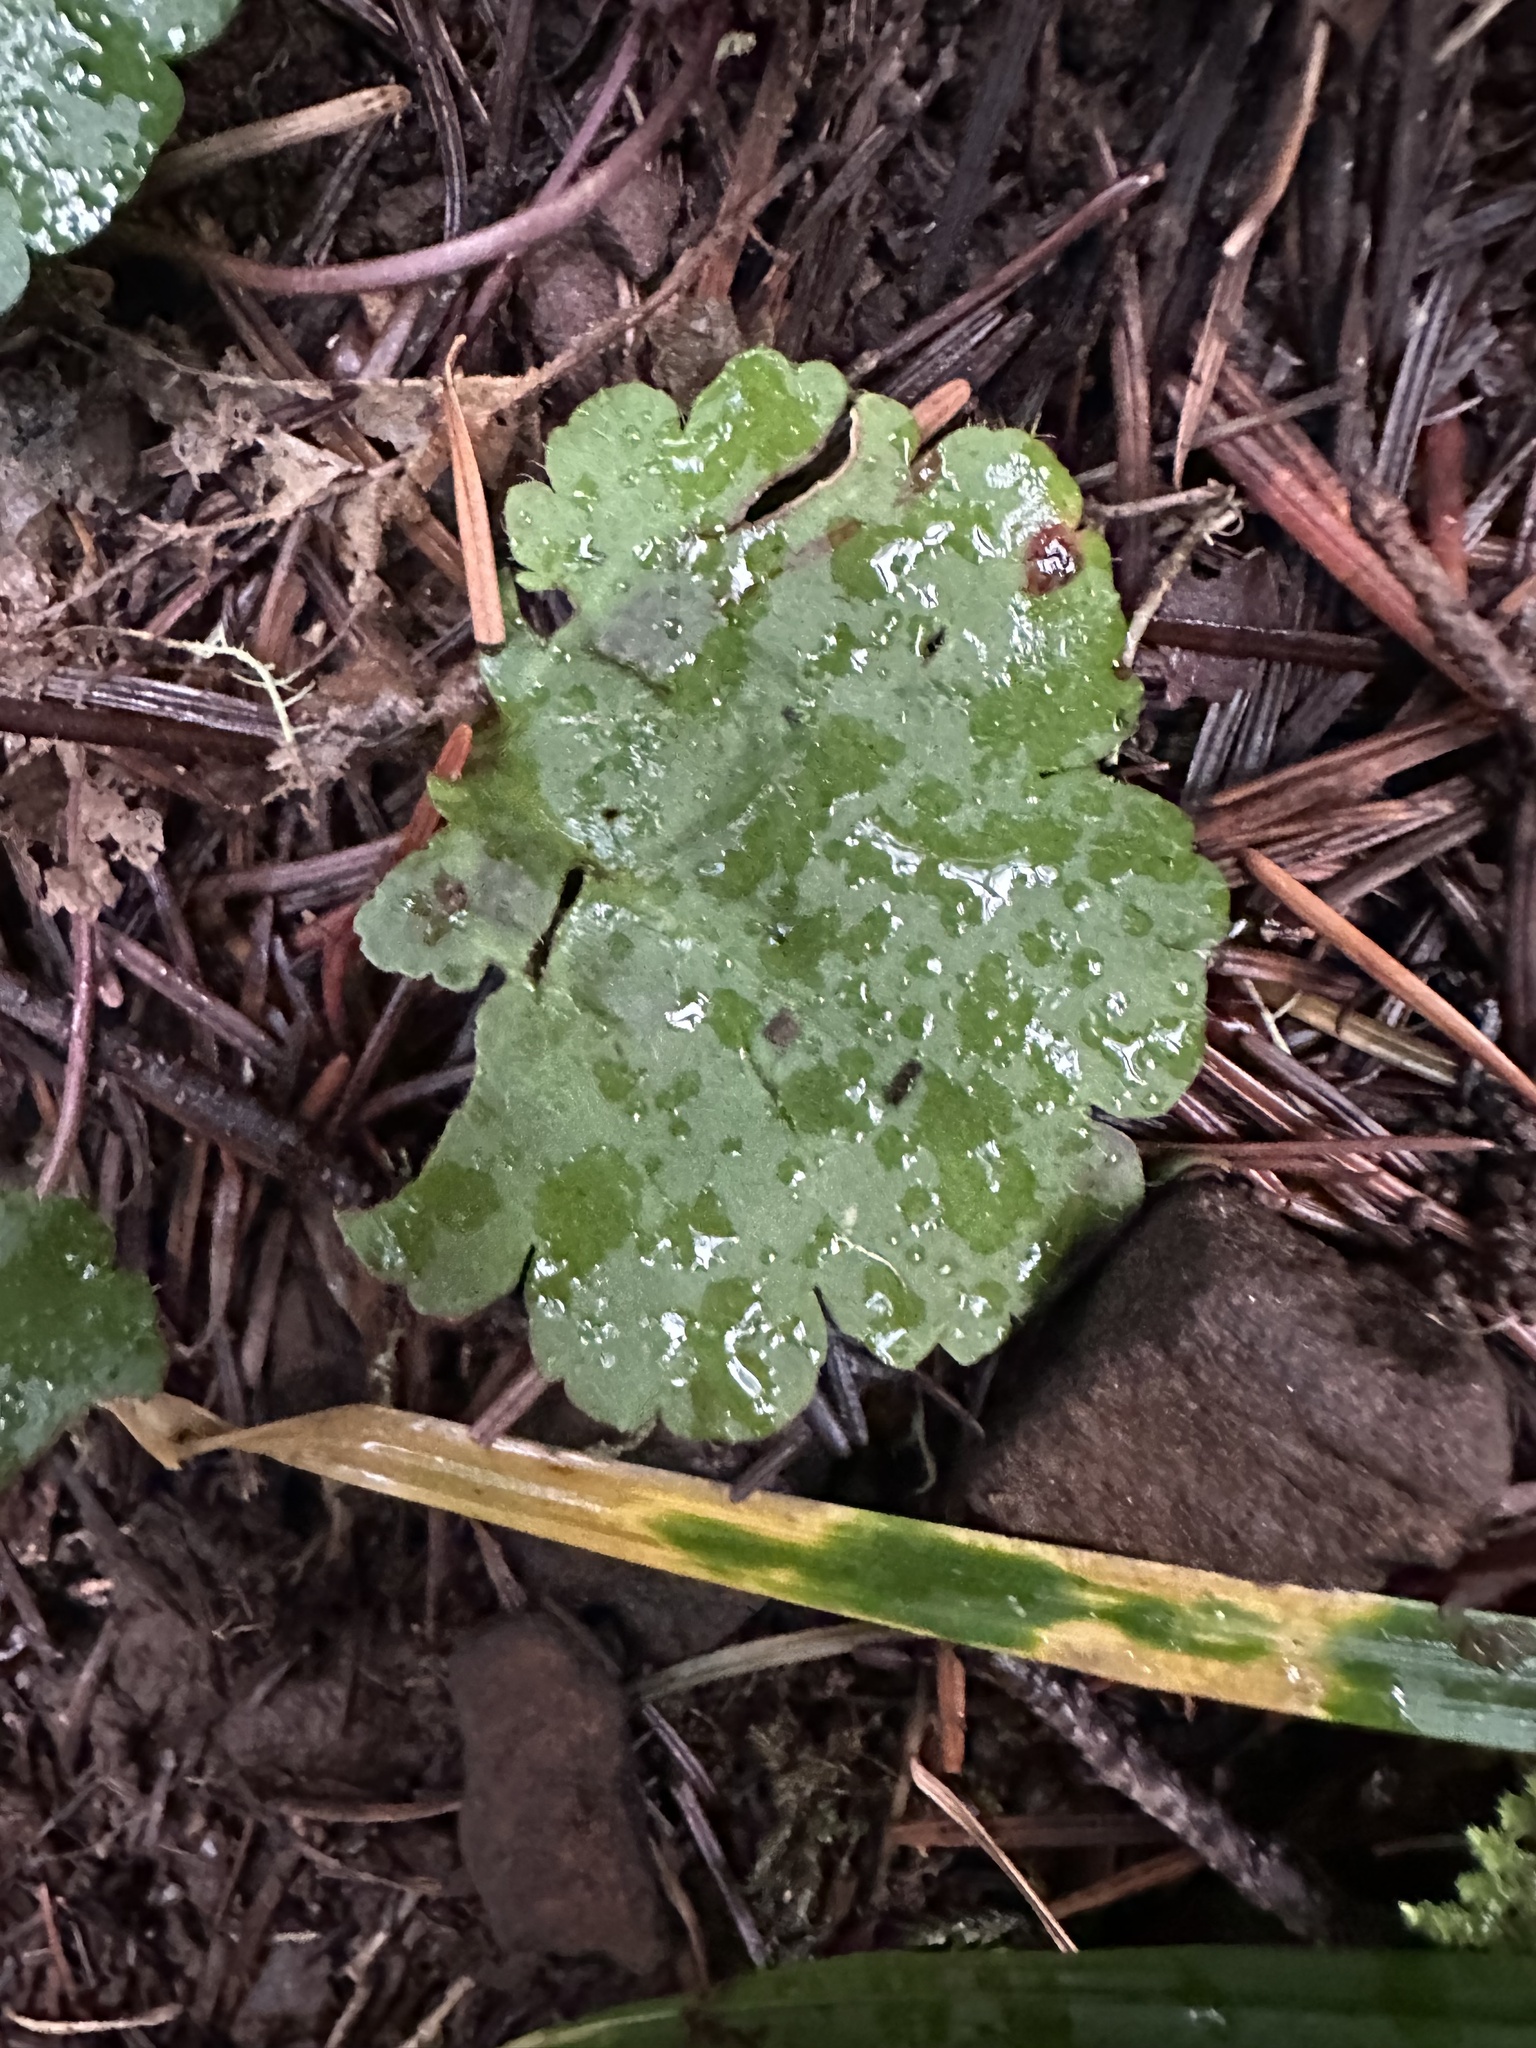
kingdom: Plantae
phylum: Tracheophyta
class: Magnoliopsida
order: Lamiales
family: Plantaginaceae
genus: Synthyris
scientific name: Synthyris reniformis
